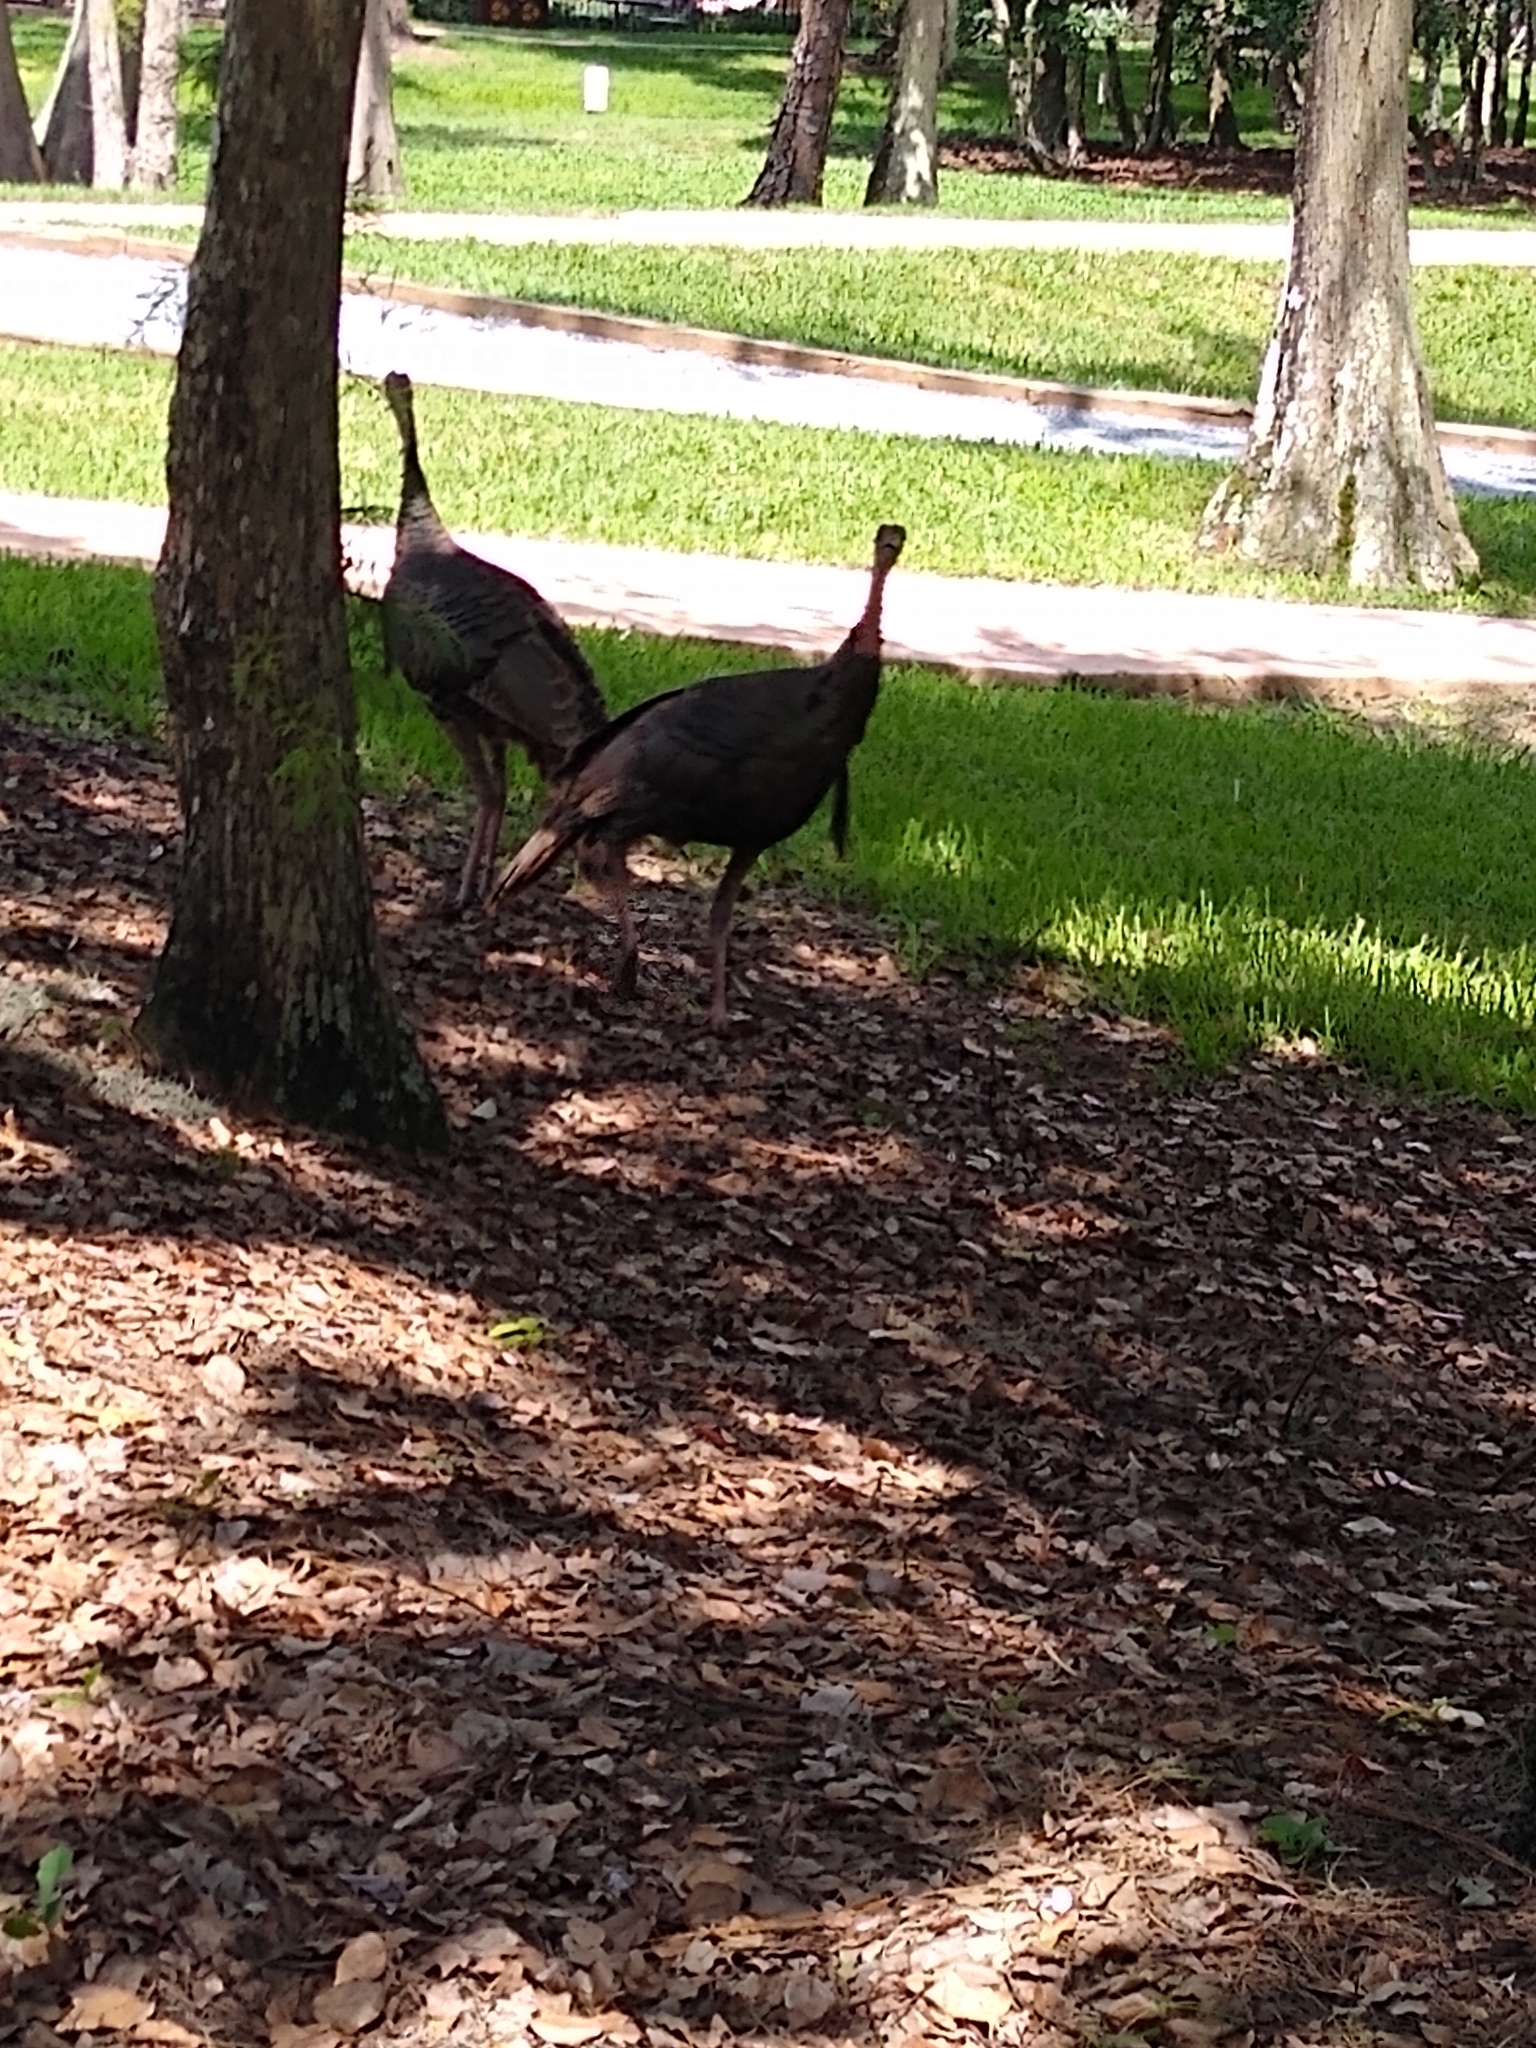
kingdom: Animalia
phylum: Chordata
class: Aves
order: Galliformes
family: Phasianidae
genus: Meleagris
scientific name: Meleagris gallopavo
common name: Wild turkey
